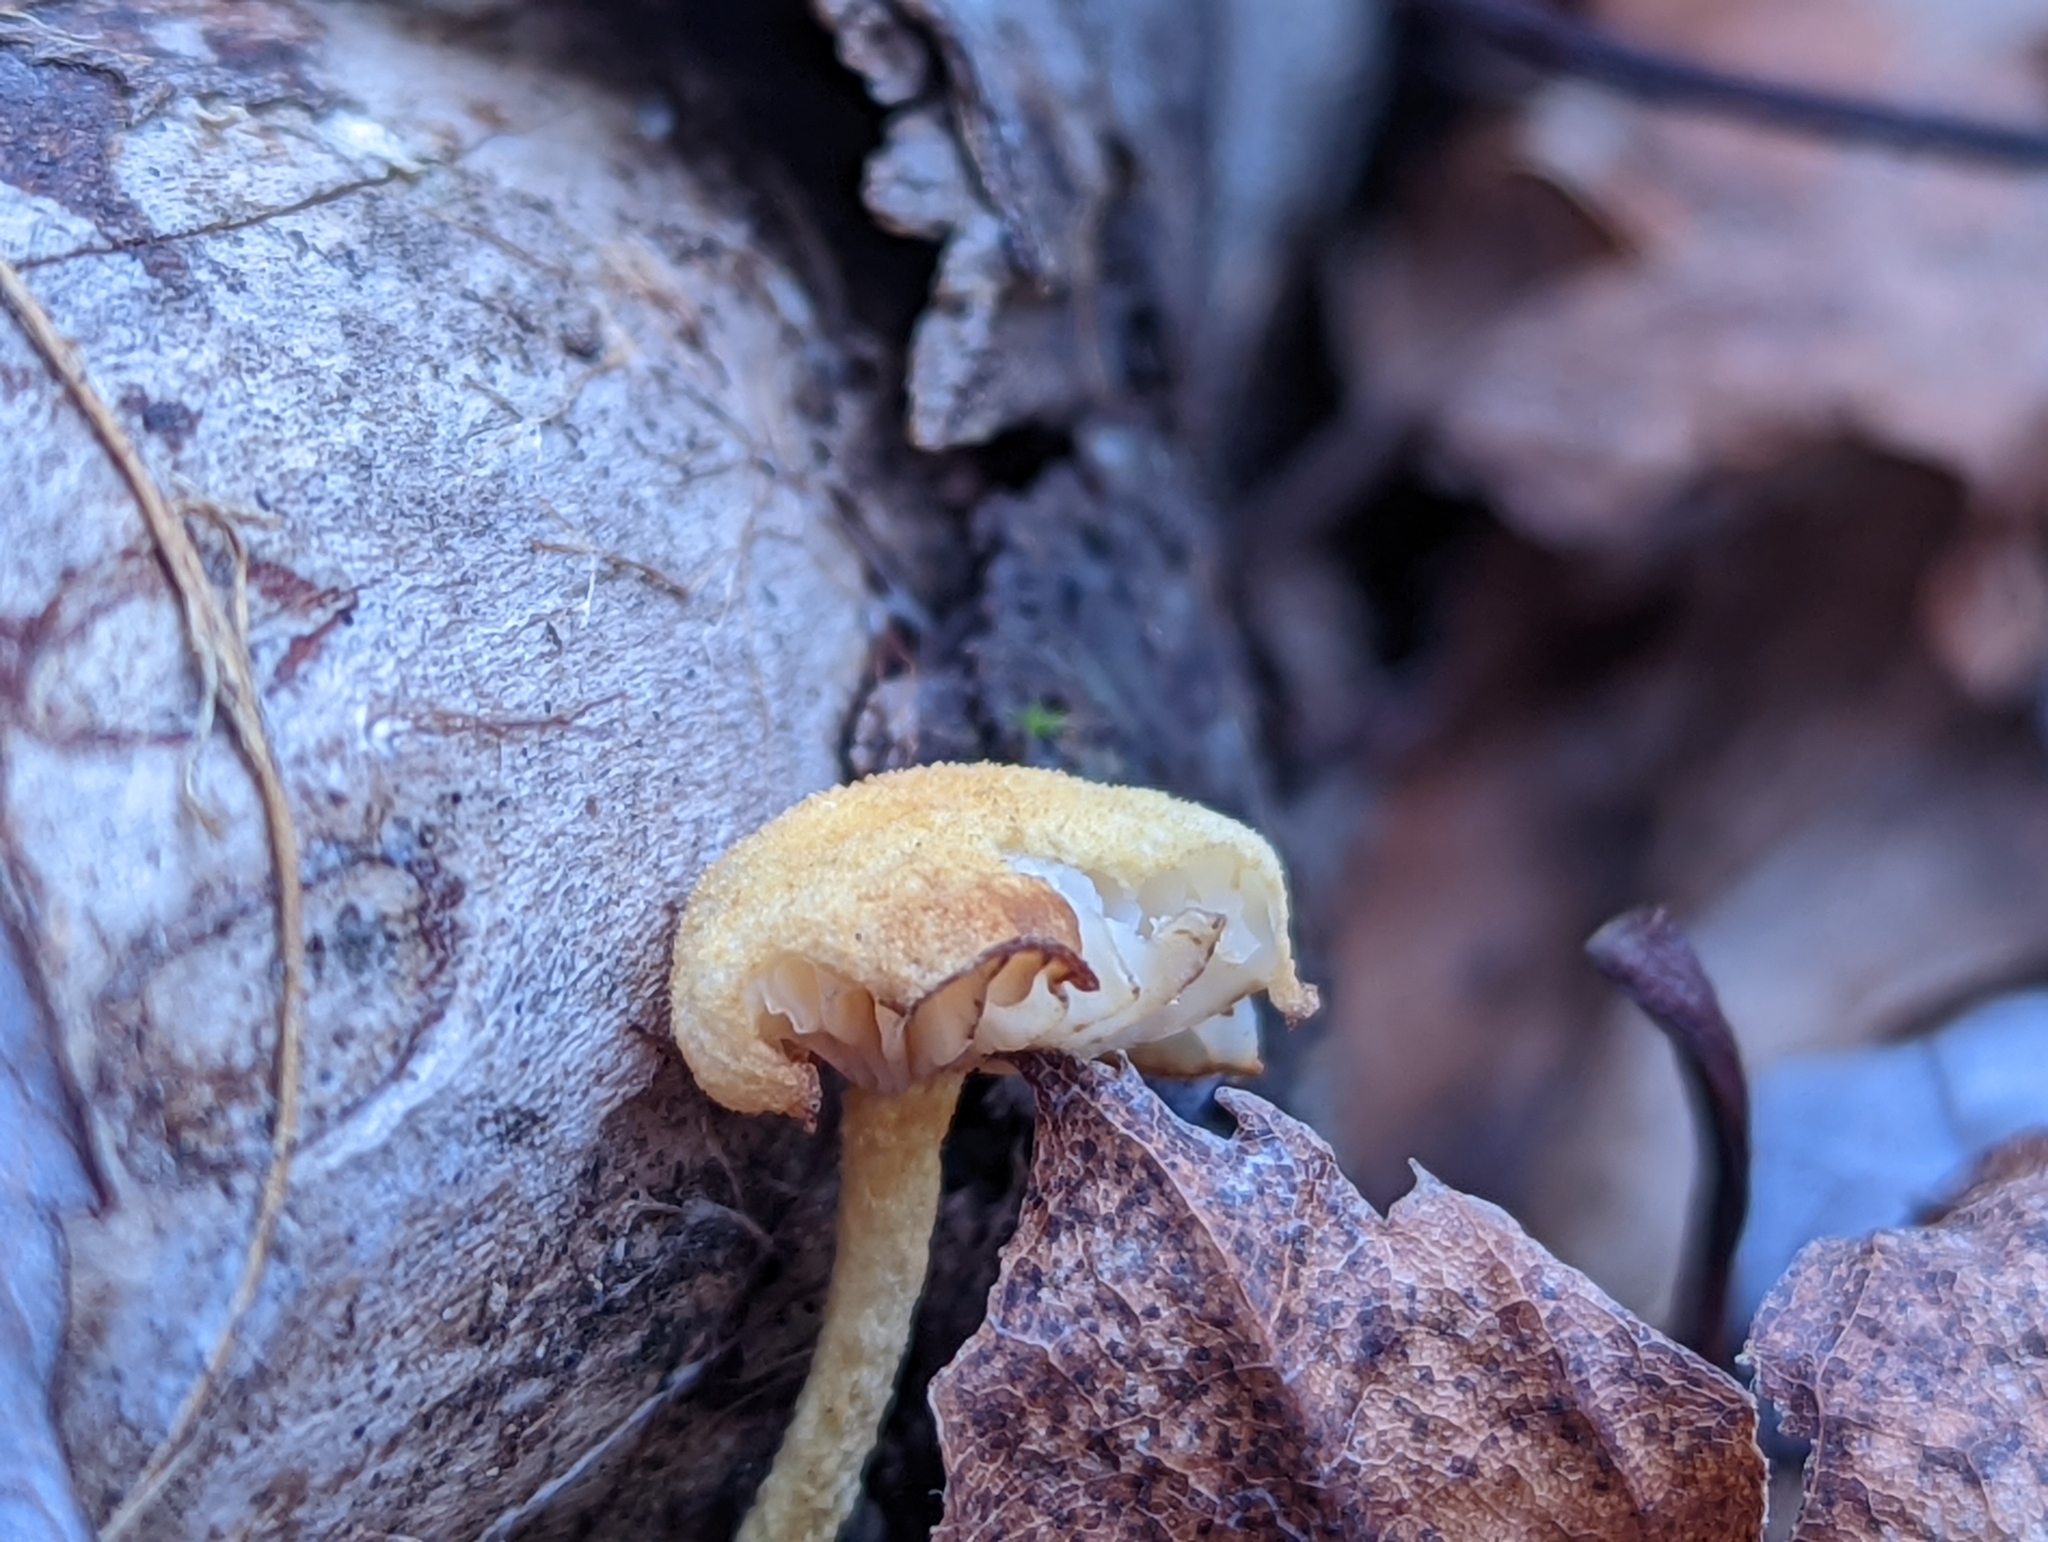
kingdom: Fungi
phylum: Basidiomycota
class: Agaricomycetes
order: Agaricales
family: Physalacriaceae
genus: Cyptotrama
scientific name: Cyptotrama chrysopepla
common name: Golden coincap
